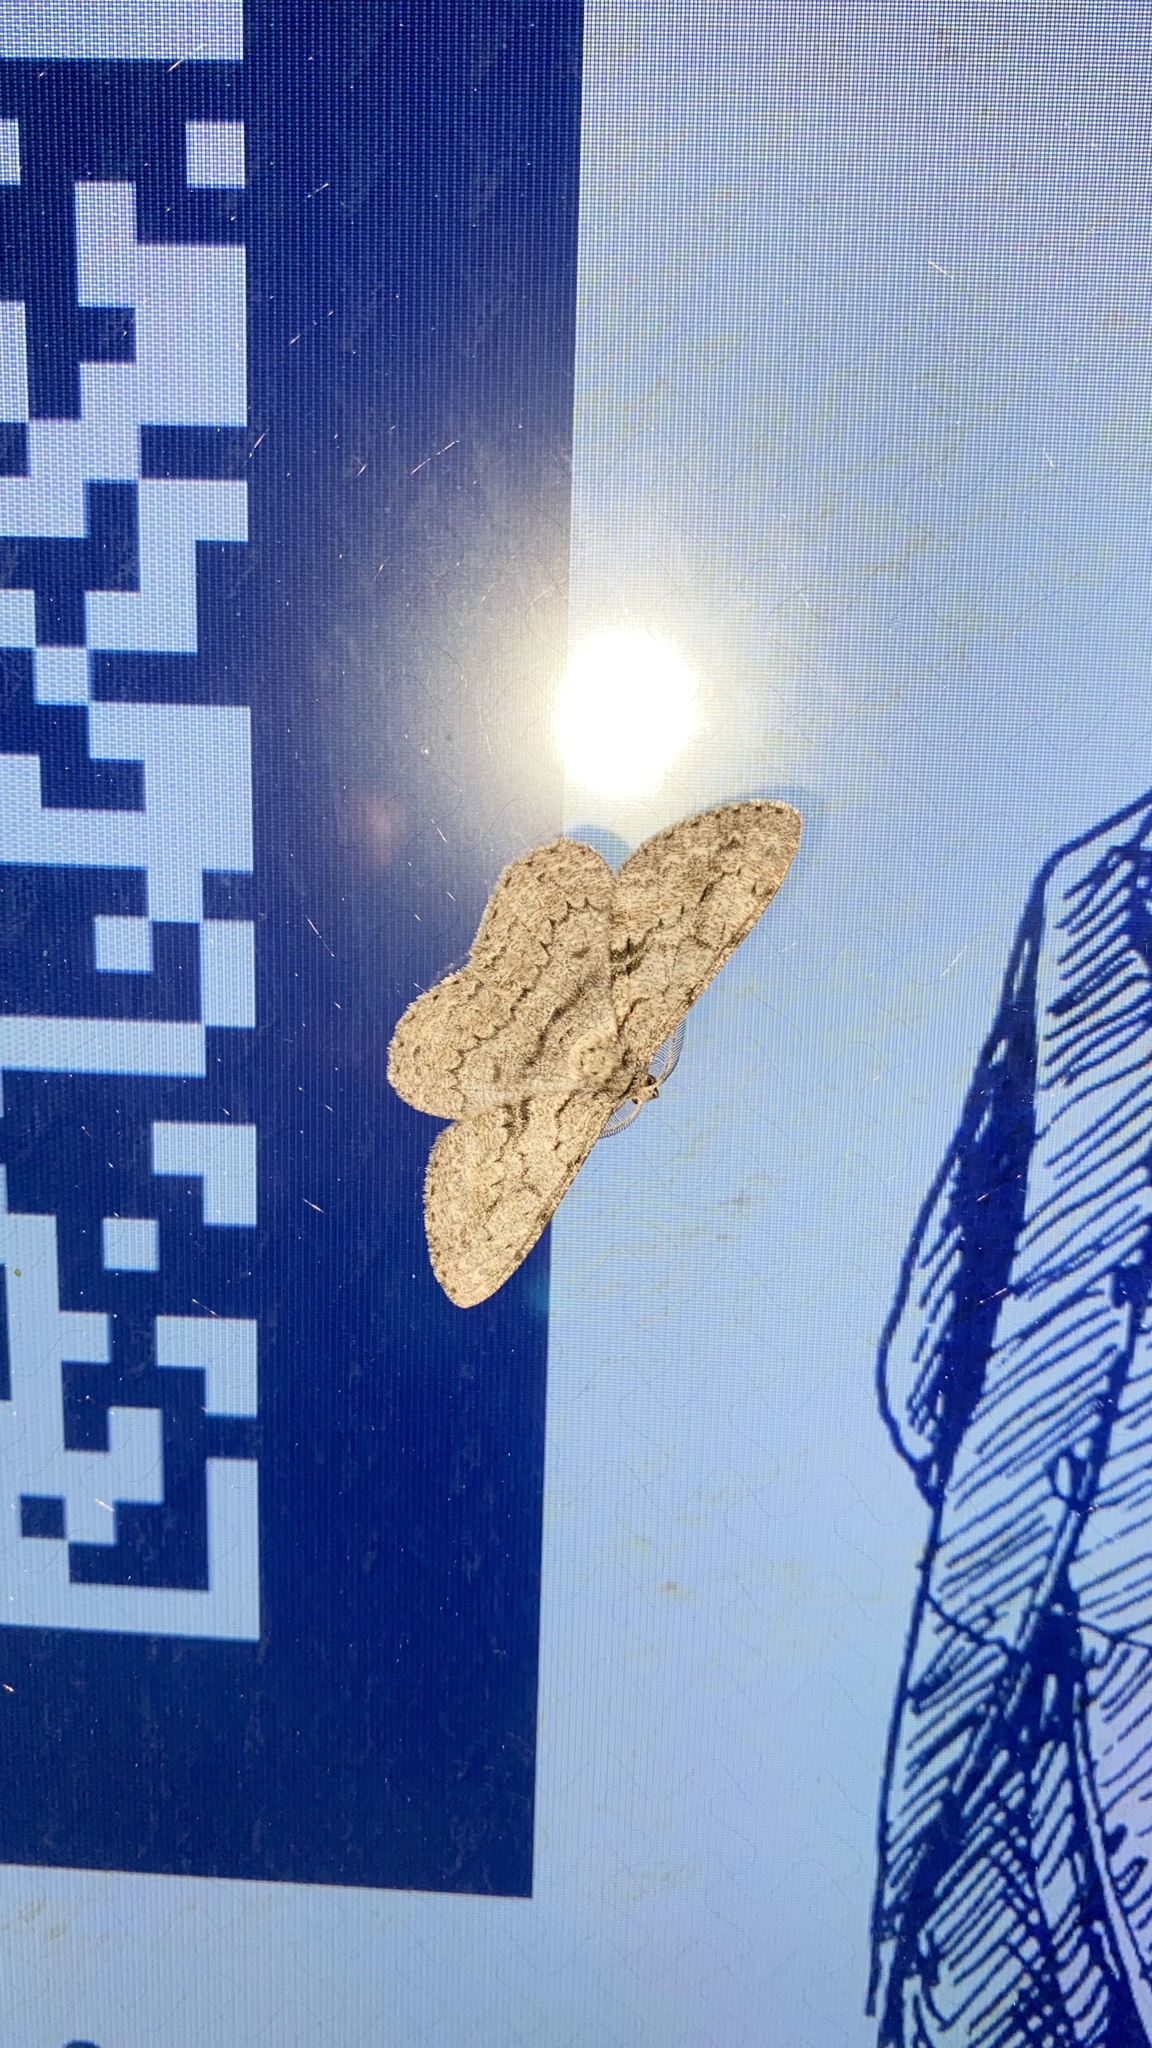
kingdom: Animalia
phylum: Arthropoda
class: Insecta
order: Lepidoptera
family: Geometridae
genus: Hypomecis
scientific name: Hypomecis roboraria
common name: Great oak beauty
